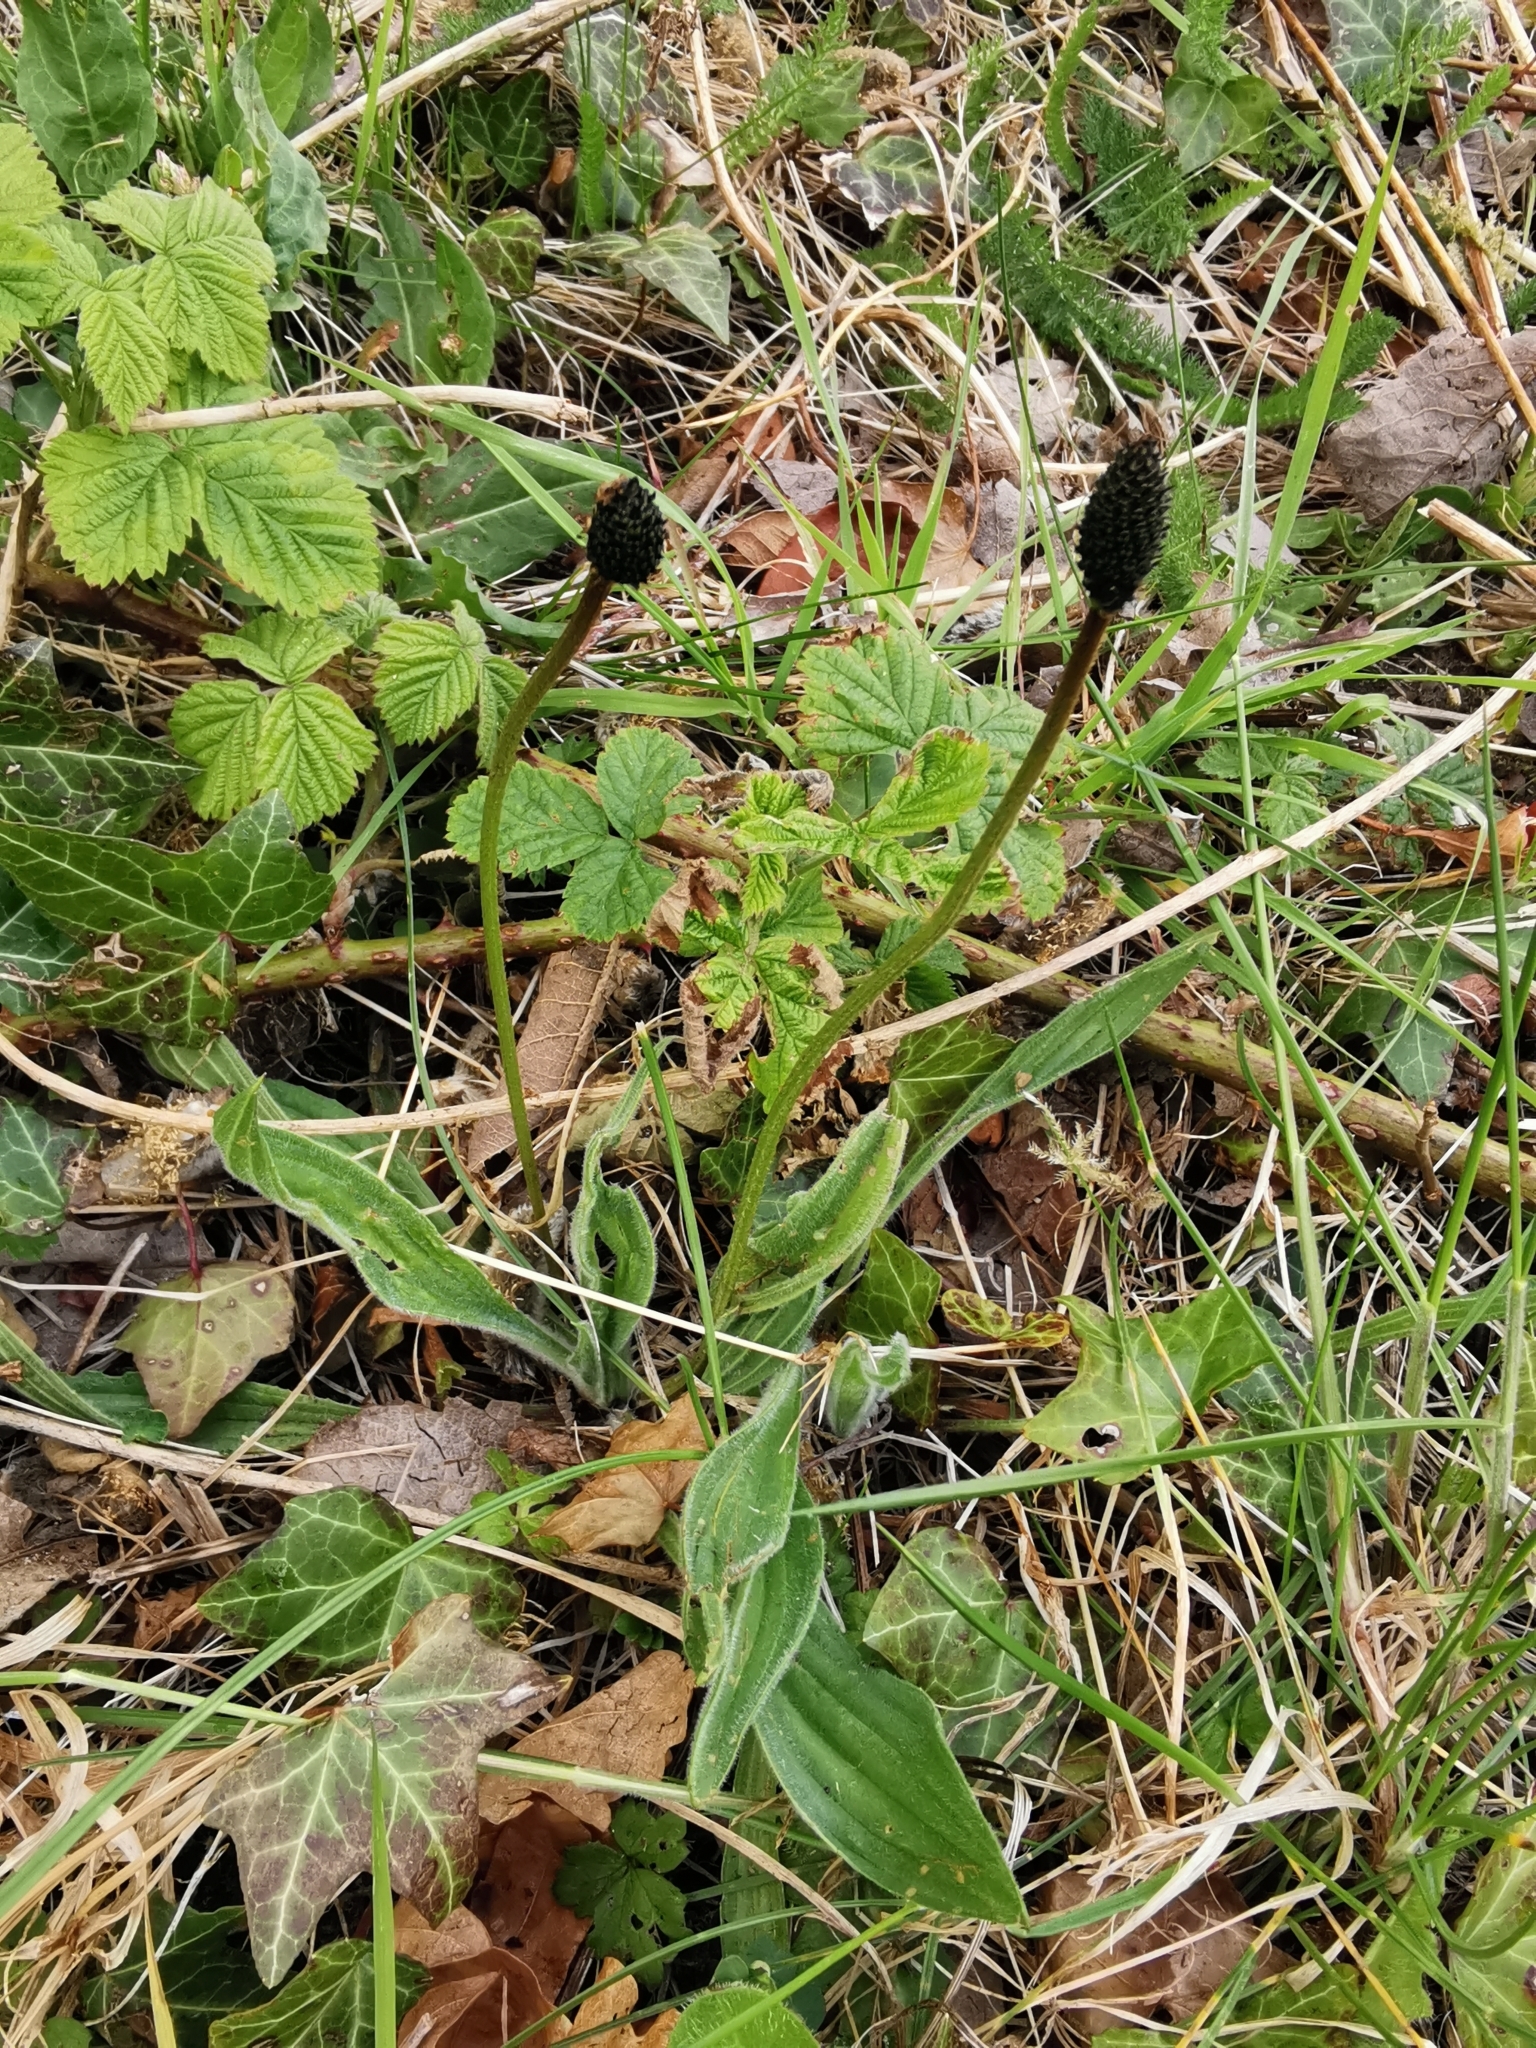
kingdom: Plantae
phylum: Tracheophyta
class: Magnoliopsida
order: Lamiales
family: Plantaginaceae
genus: Plantago
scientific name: Plantago lanceolata
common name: Ribwort plantain
